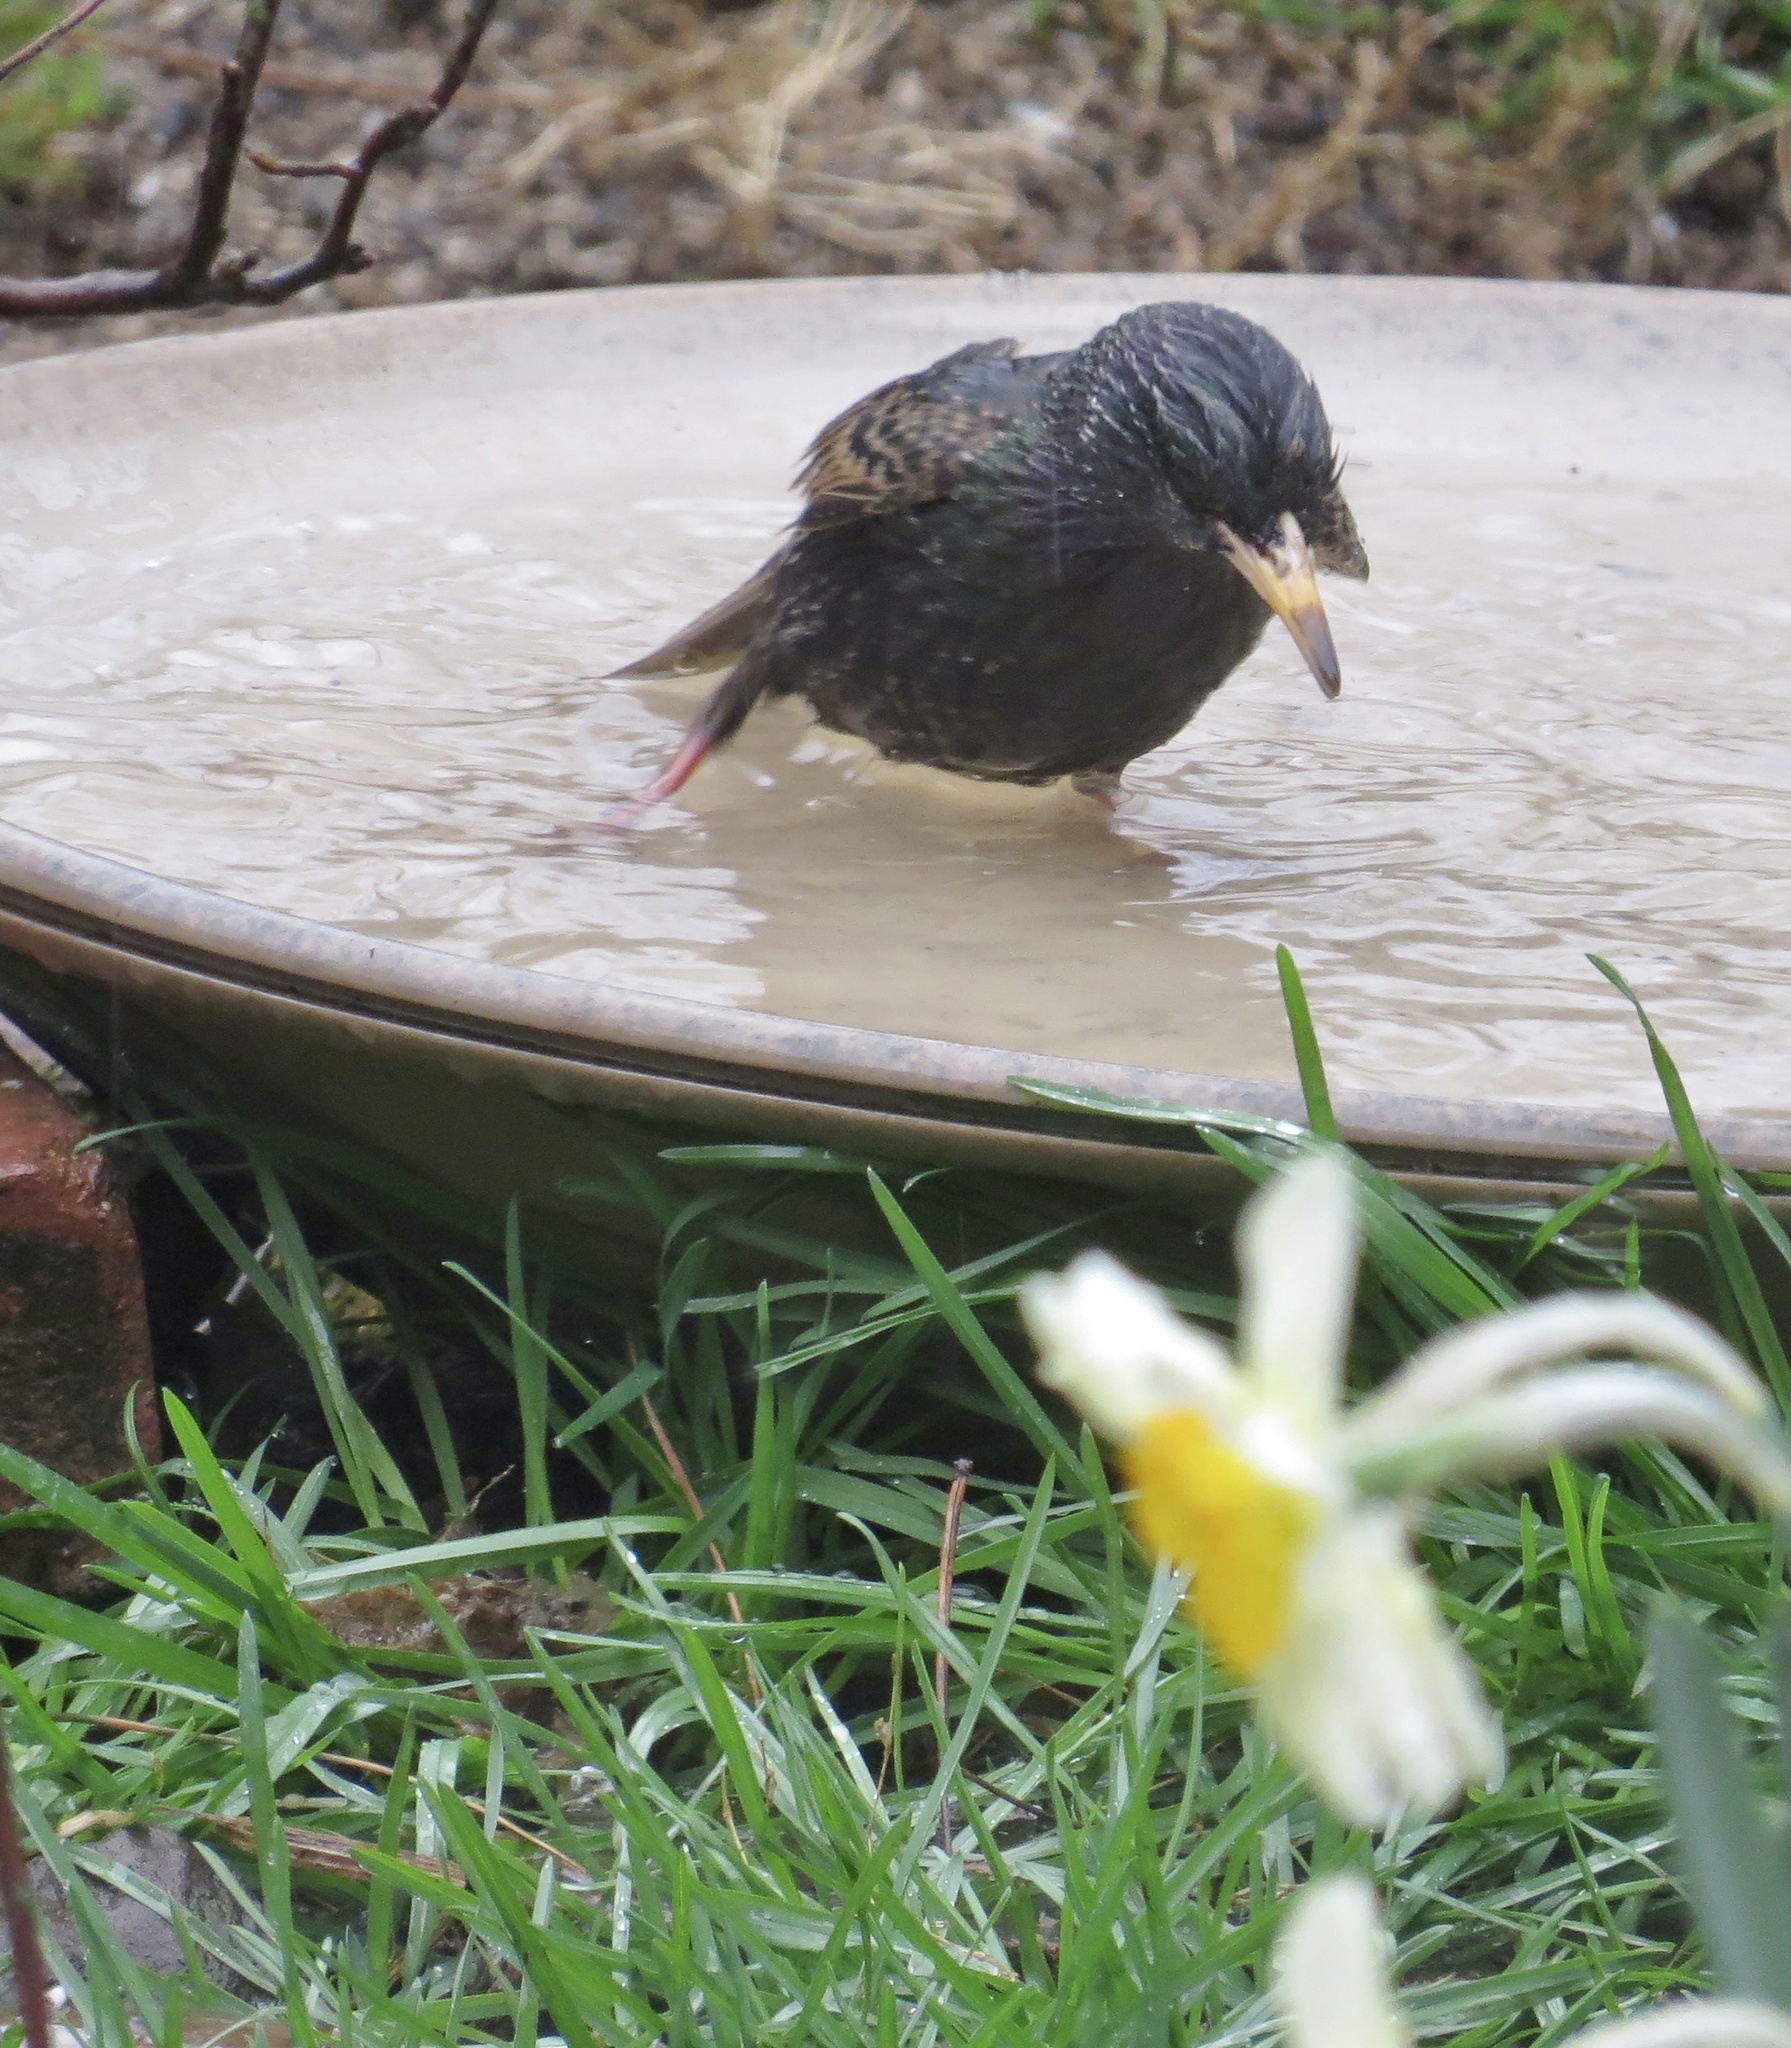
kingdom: Animalia
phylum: Chordata
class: Aves
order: Passeriformes
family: Sturnidae
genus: Sturnus
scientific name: Sturnus vulgaris
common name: Common starling
